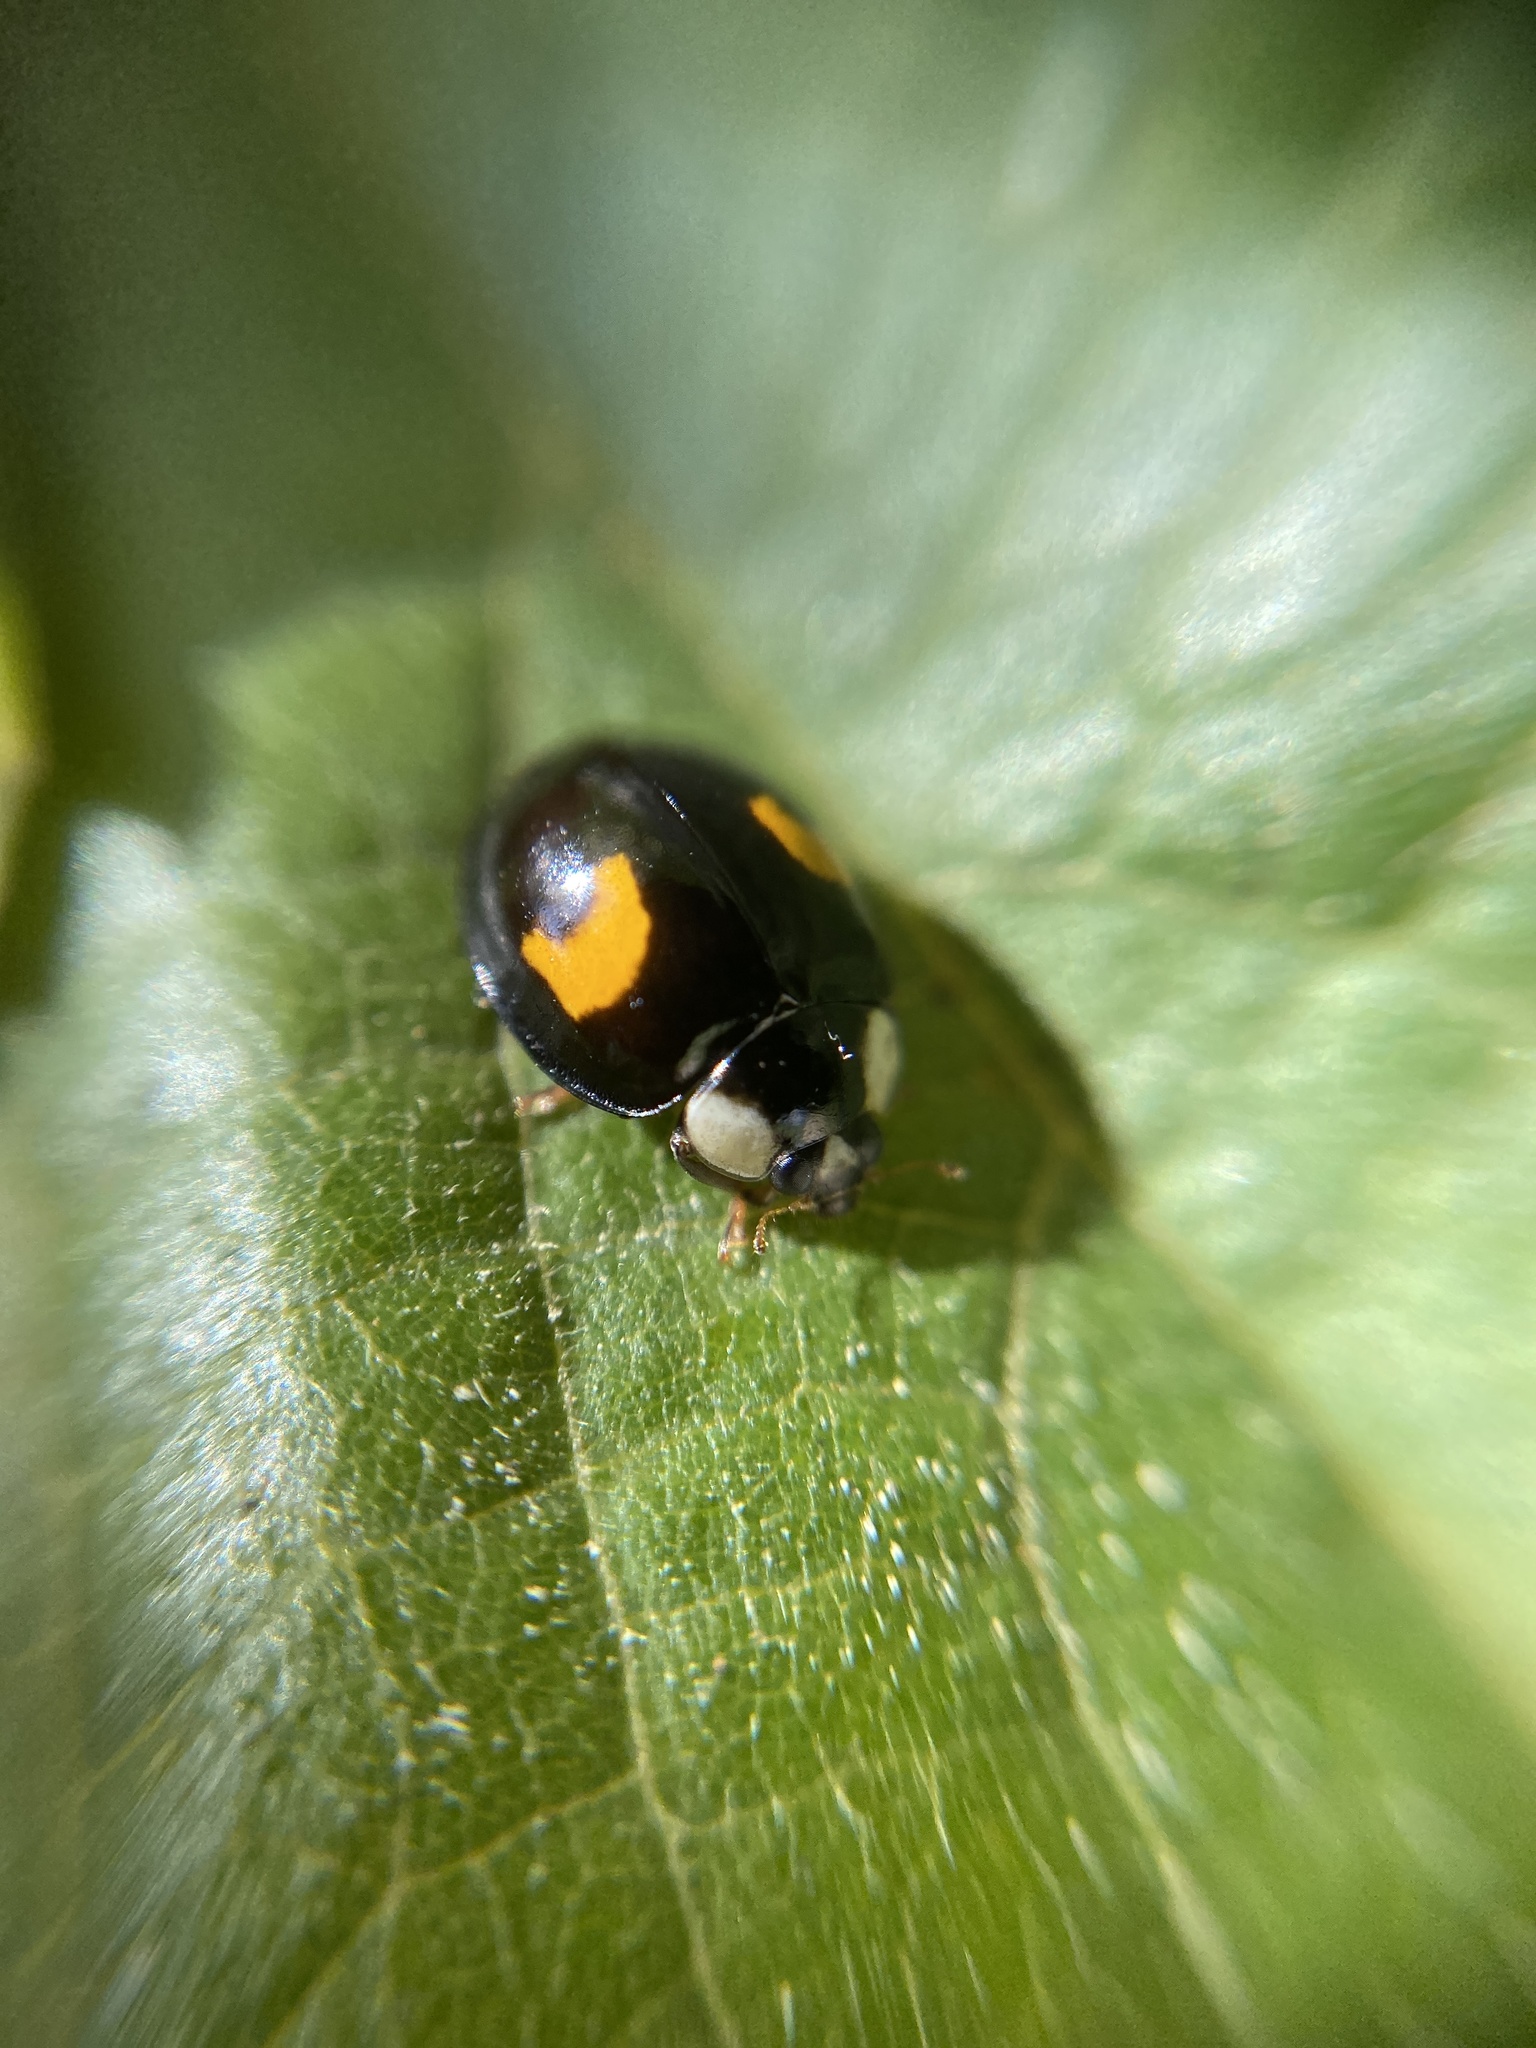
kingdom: Animalia
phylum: Arthropoda
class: Insecta
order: Coleoptera
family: Coccinellidae
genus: Harmonia
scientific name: Harmonia axyridis
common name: Harlequin ladybird
